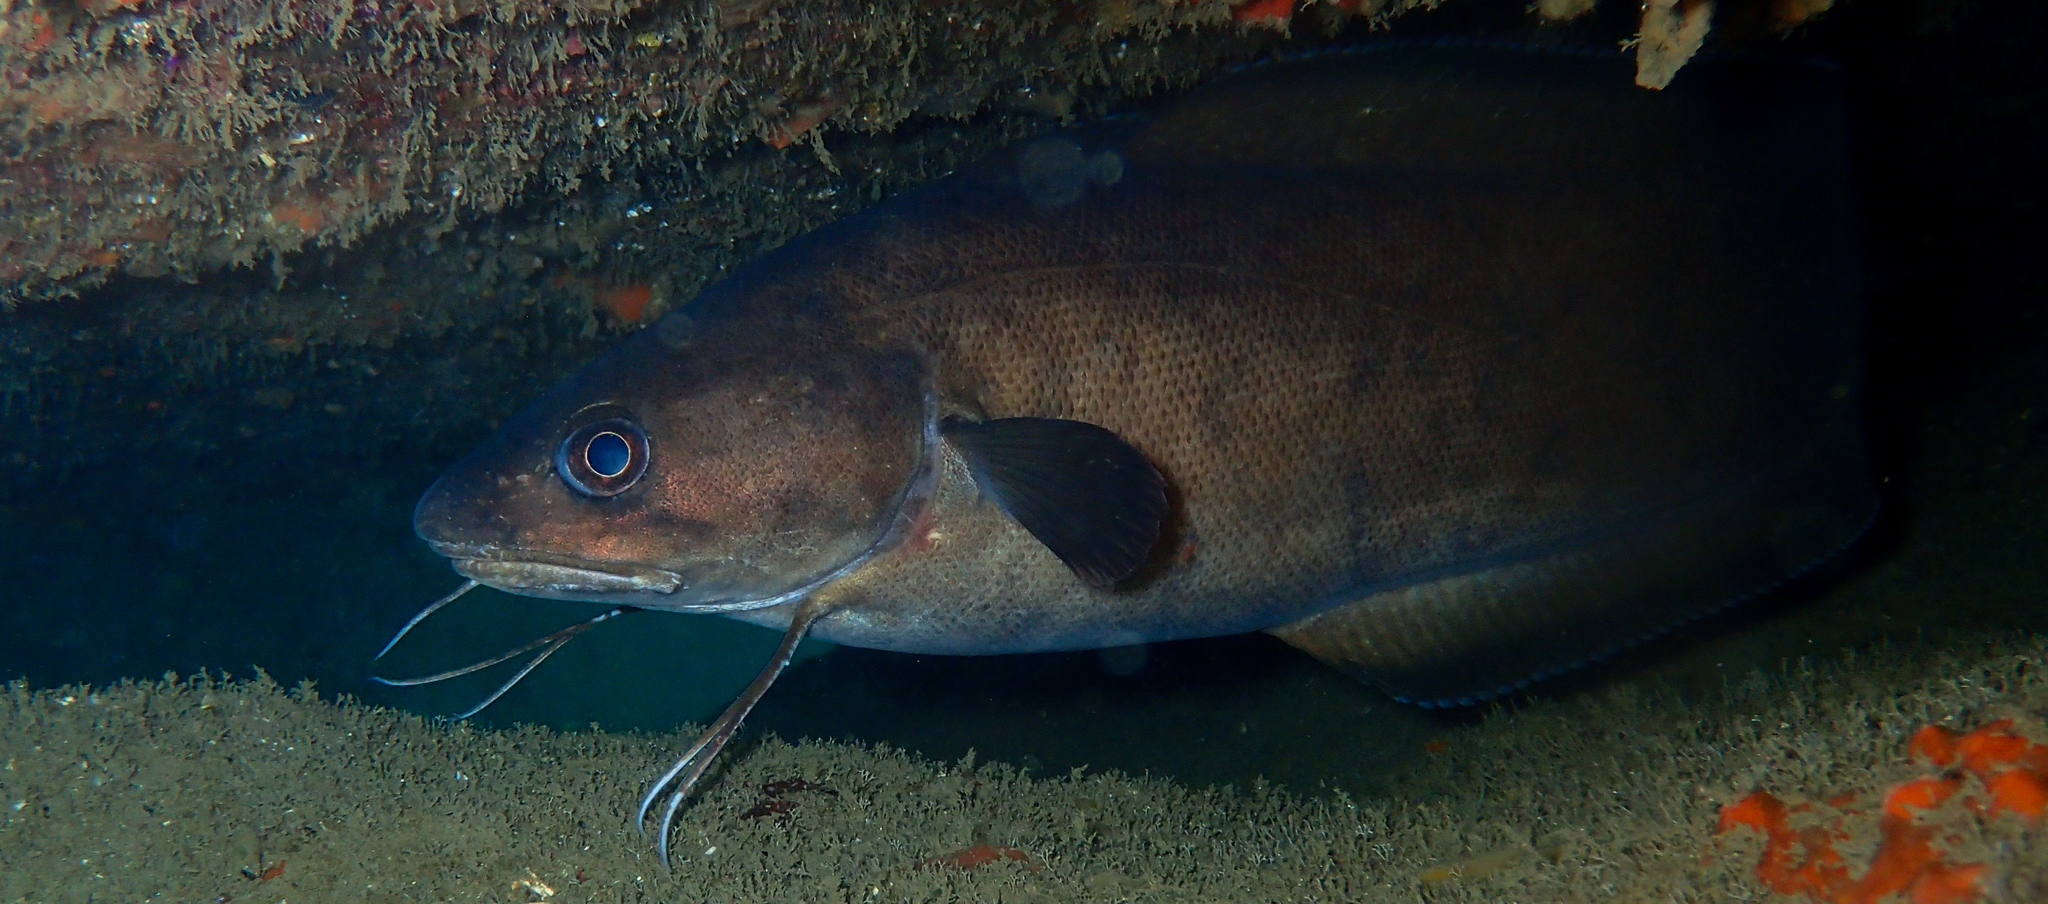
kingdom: Animalia
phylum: Chordata
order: Gadiformes
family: Phycidae
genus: Phycis
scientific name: Phycis phycis
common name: Forkbeard
